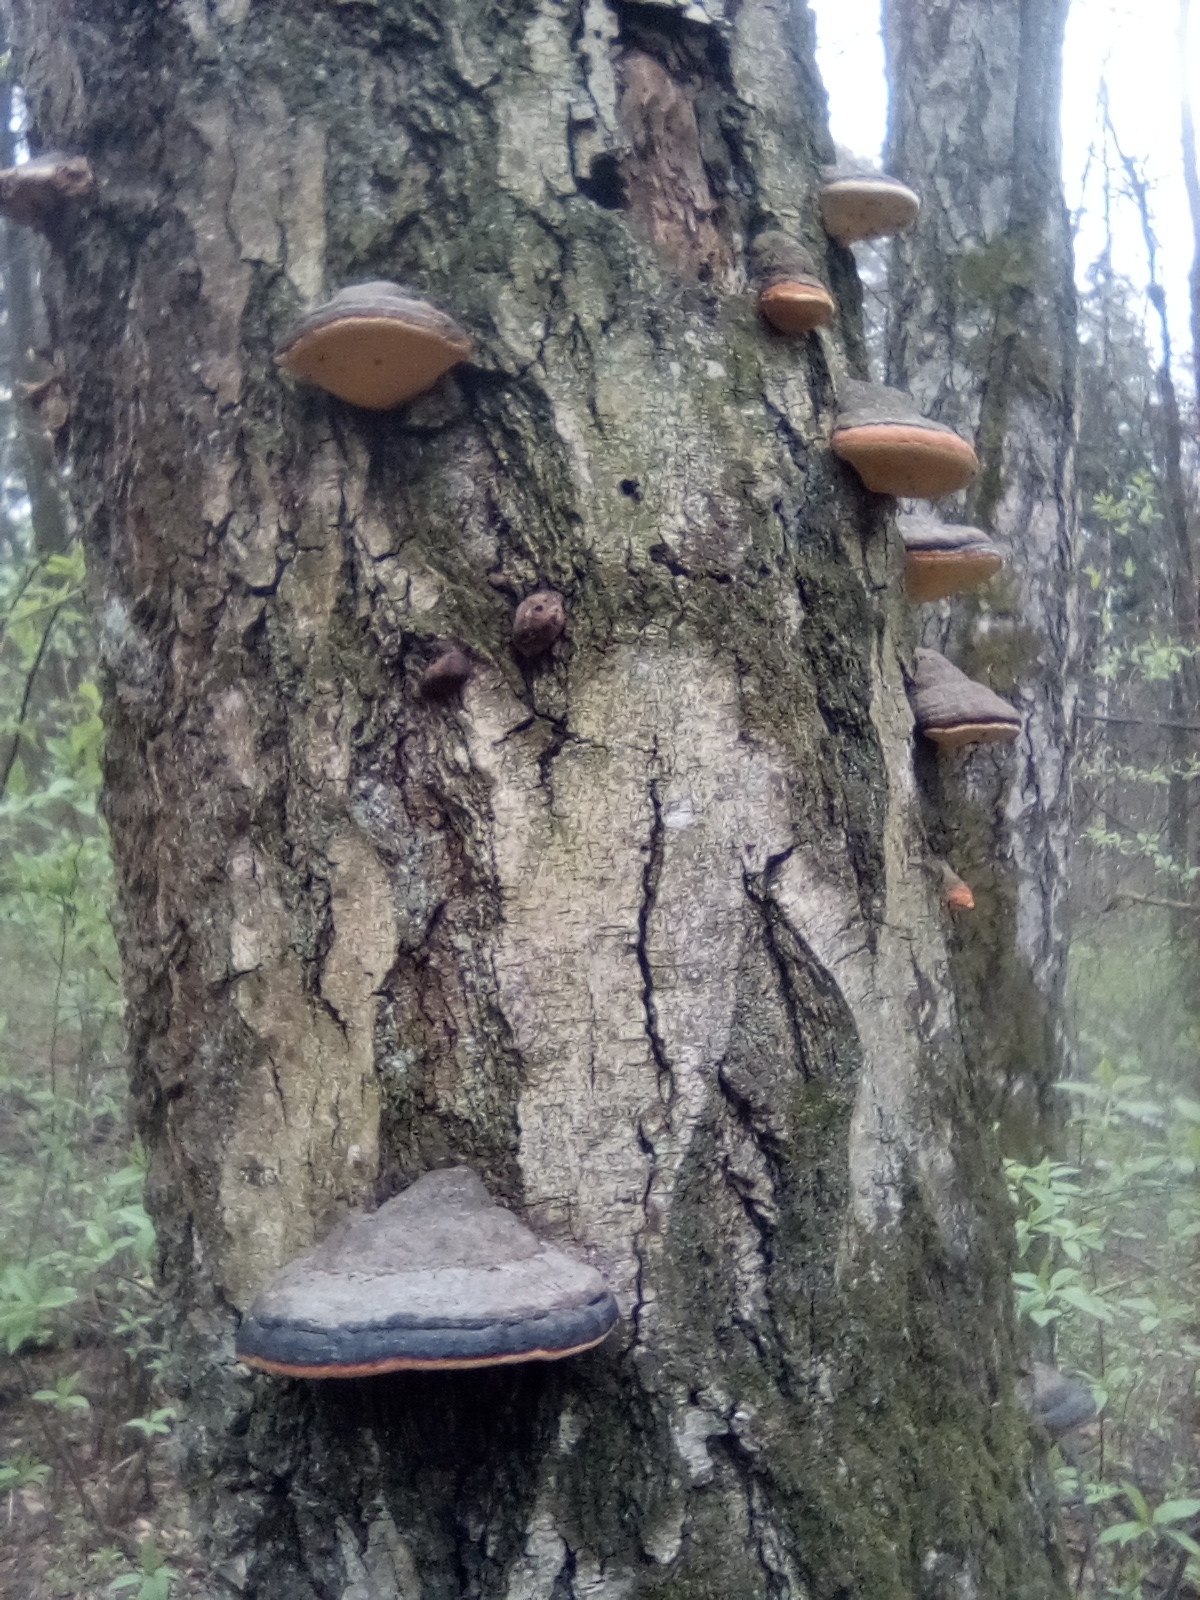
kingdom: Fungi
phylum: Basidiomycota
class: Agaricomycetes
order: Polyporales
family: Fomitopsidaceae
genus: Fomitopsis
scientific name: Fomitopsis pinicola
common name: Red-belted bracket
